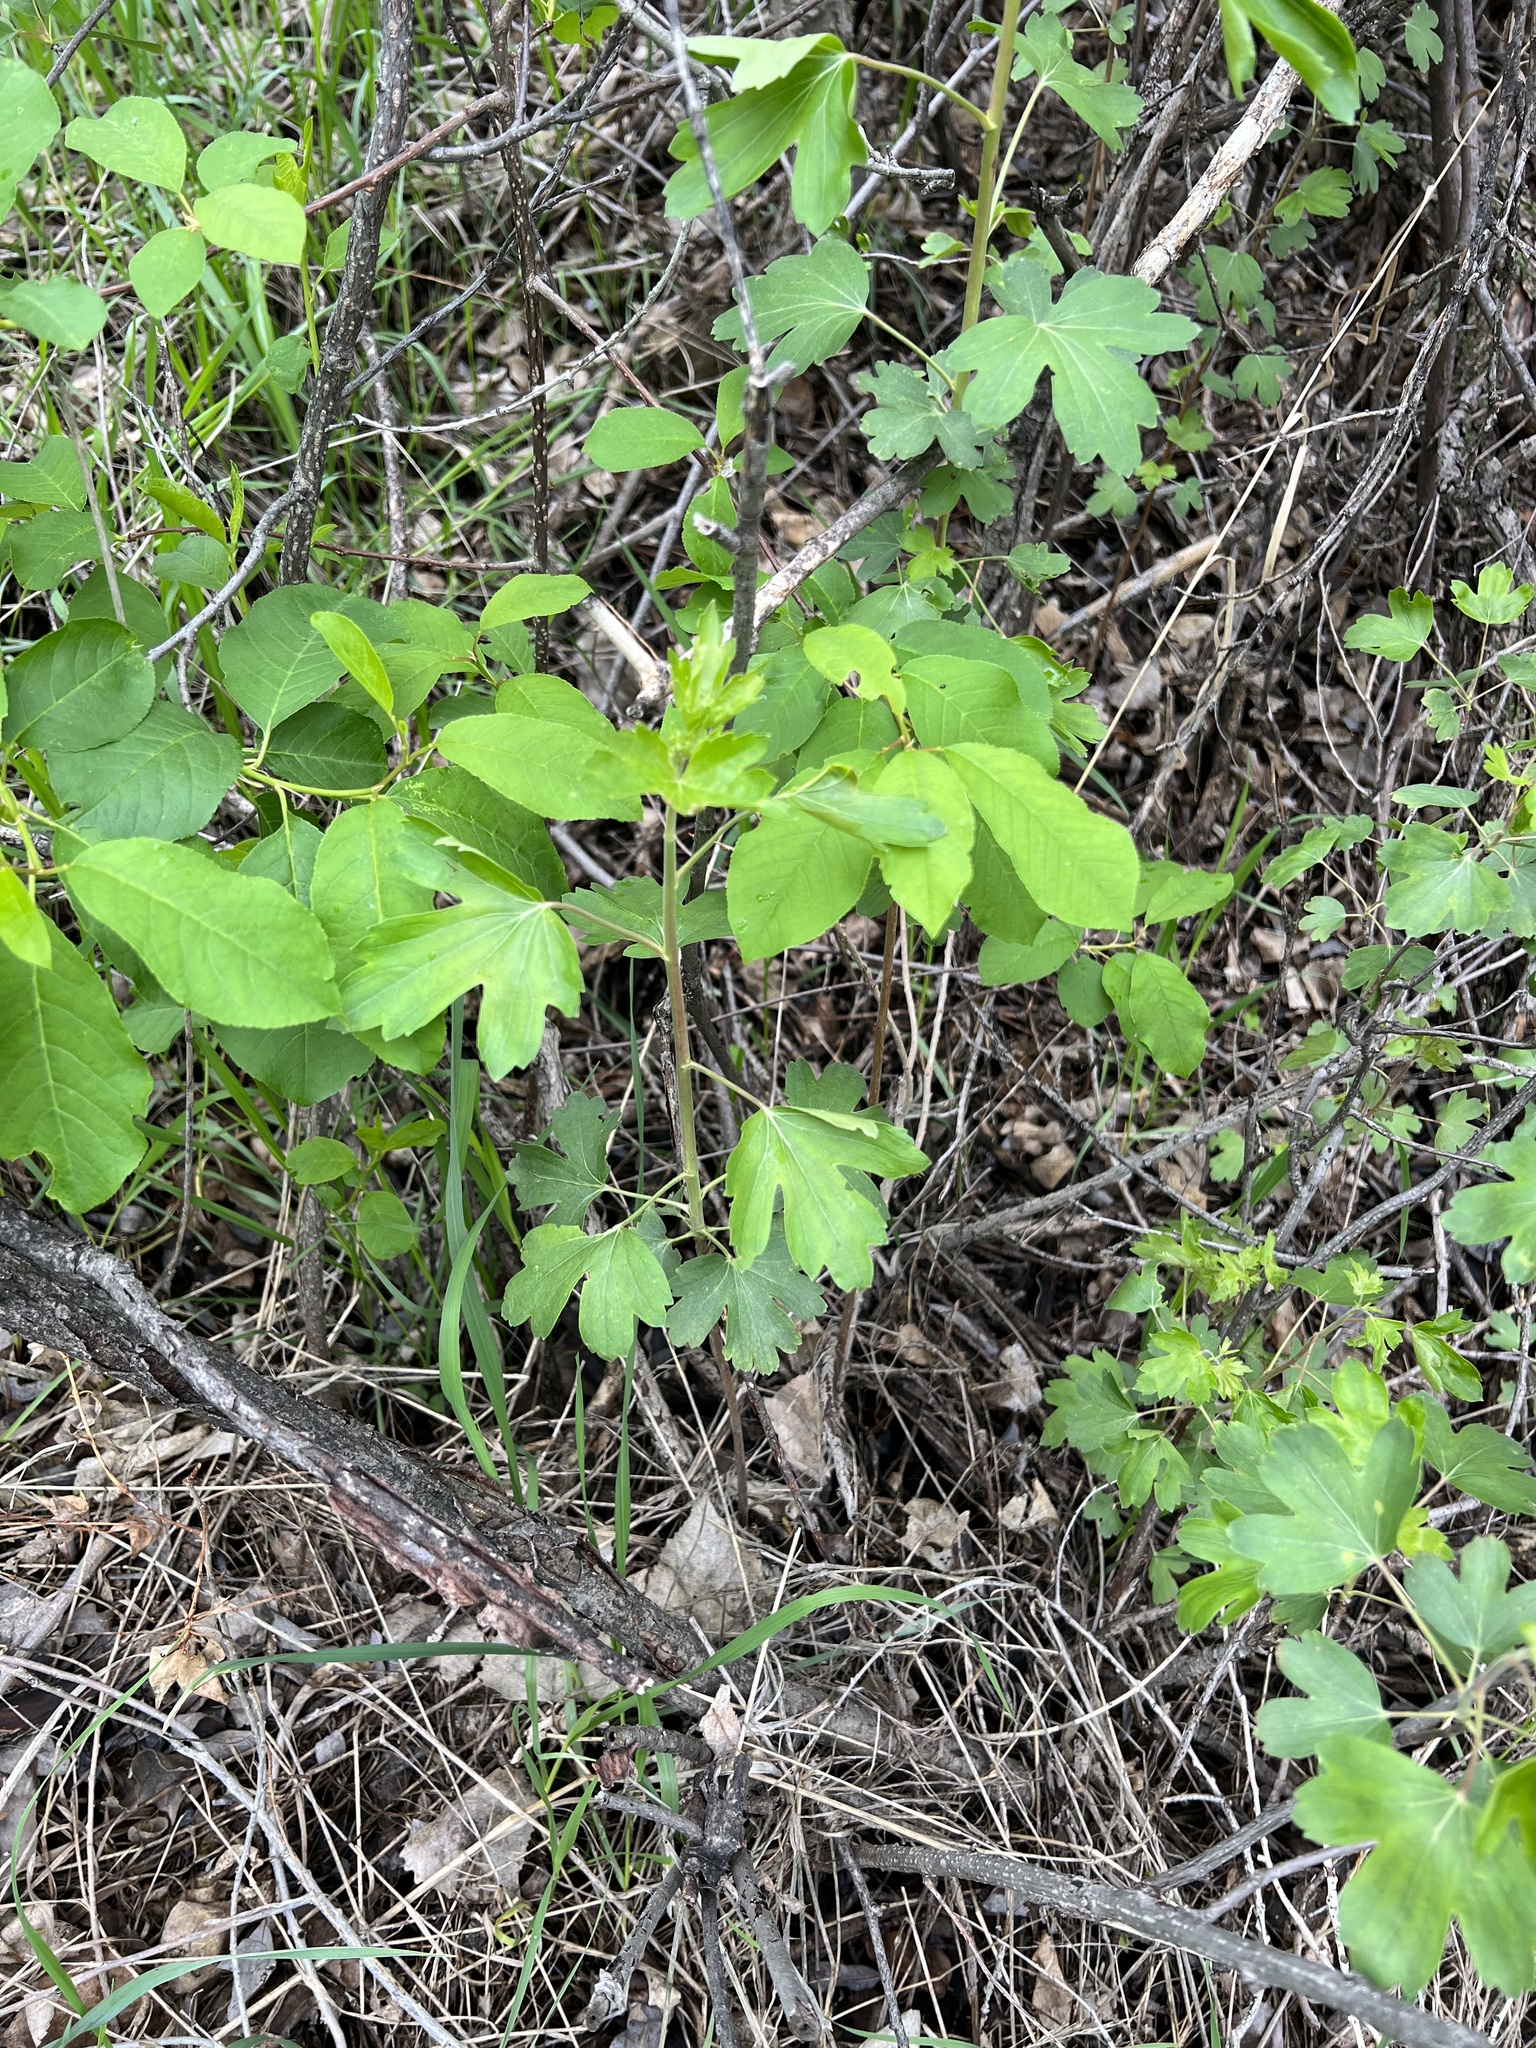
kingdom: Plantae
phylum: Tracheophyta
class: Magnoliopsida
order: Saxifragales
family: Grossulariaceae
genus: Ribes
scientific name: Ribes aureum
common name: Golden currant
